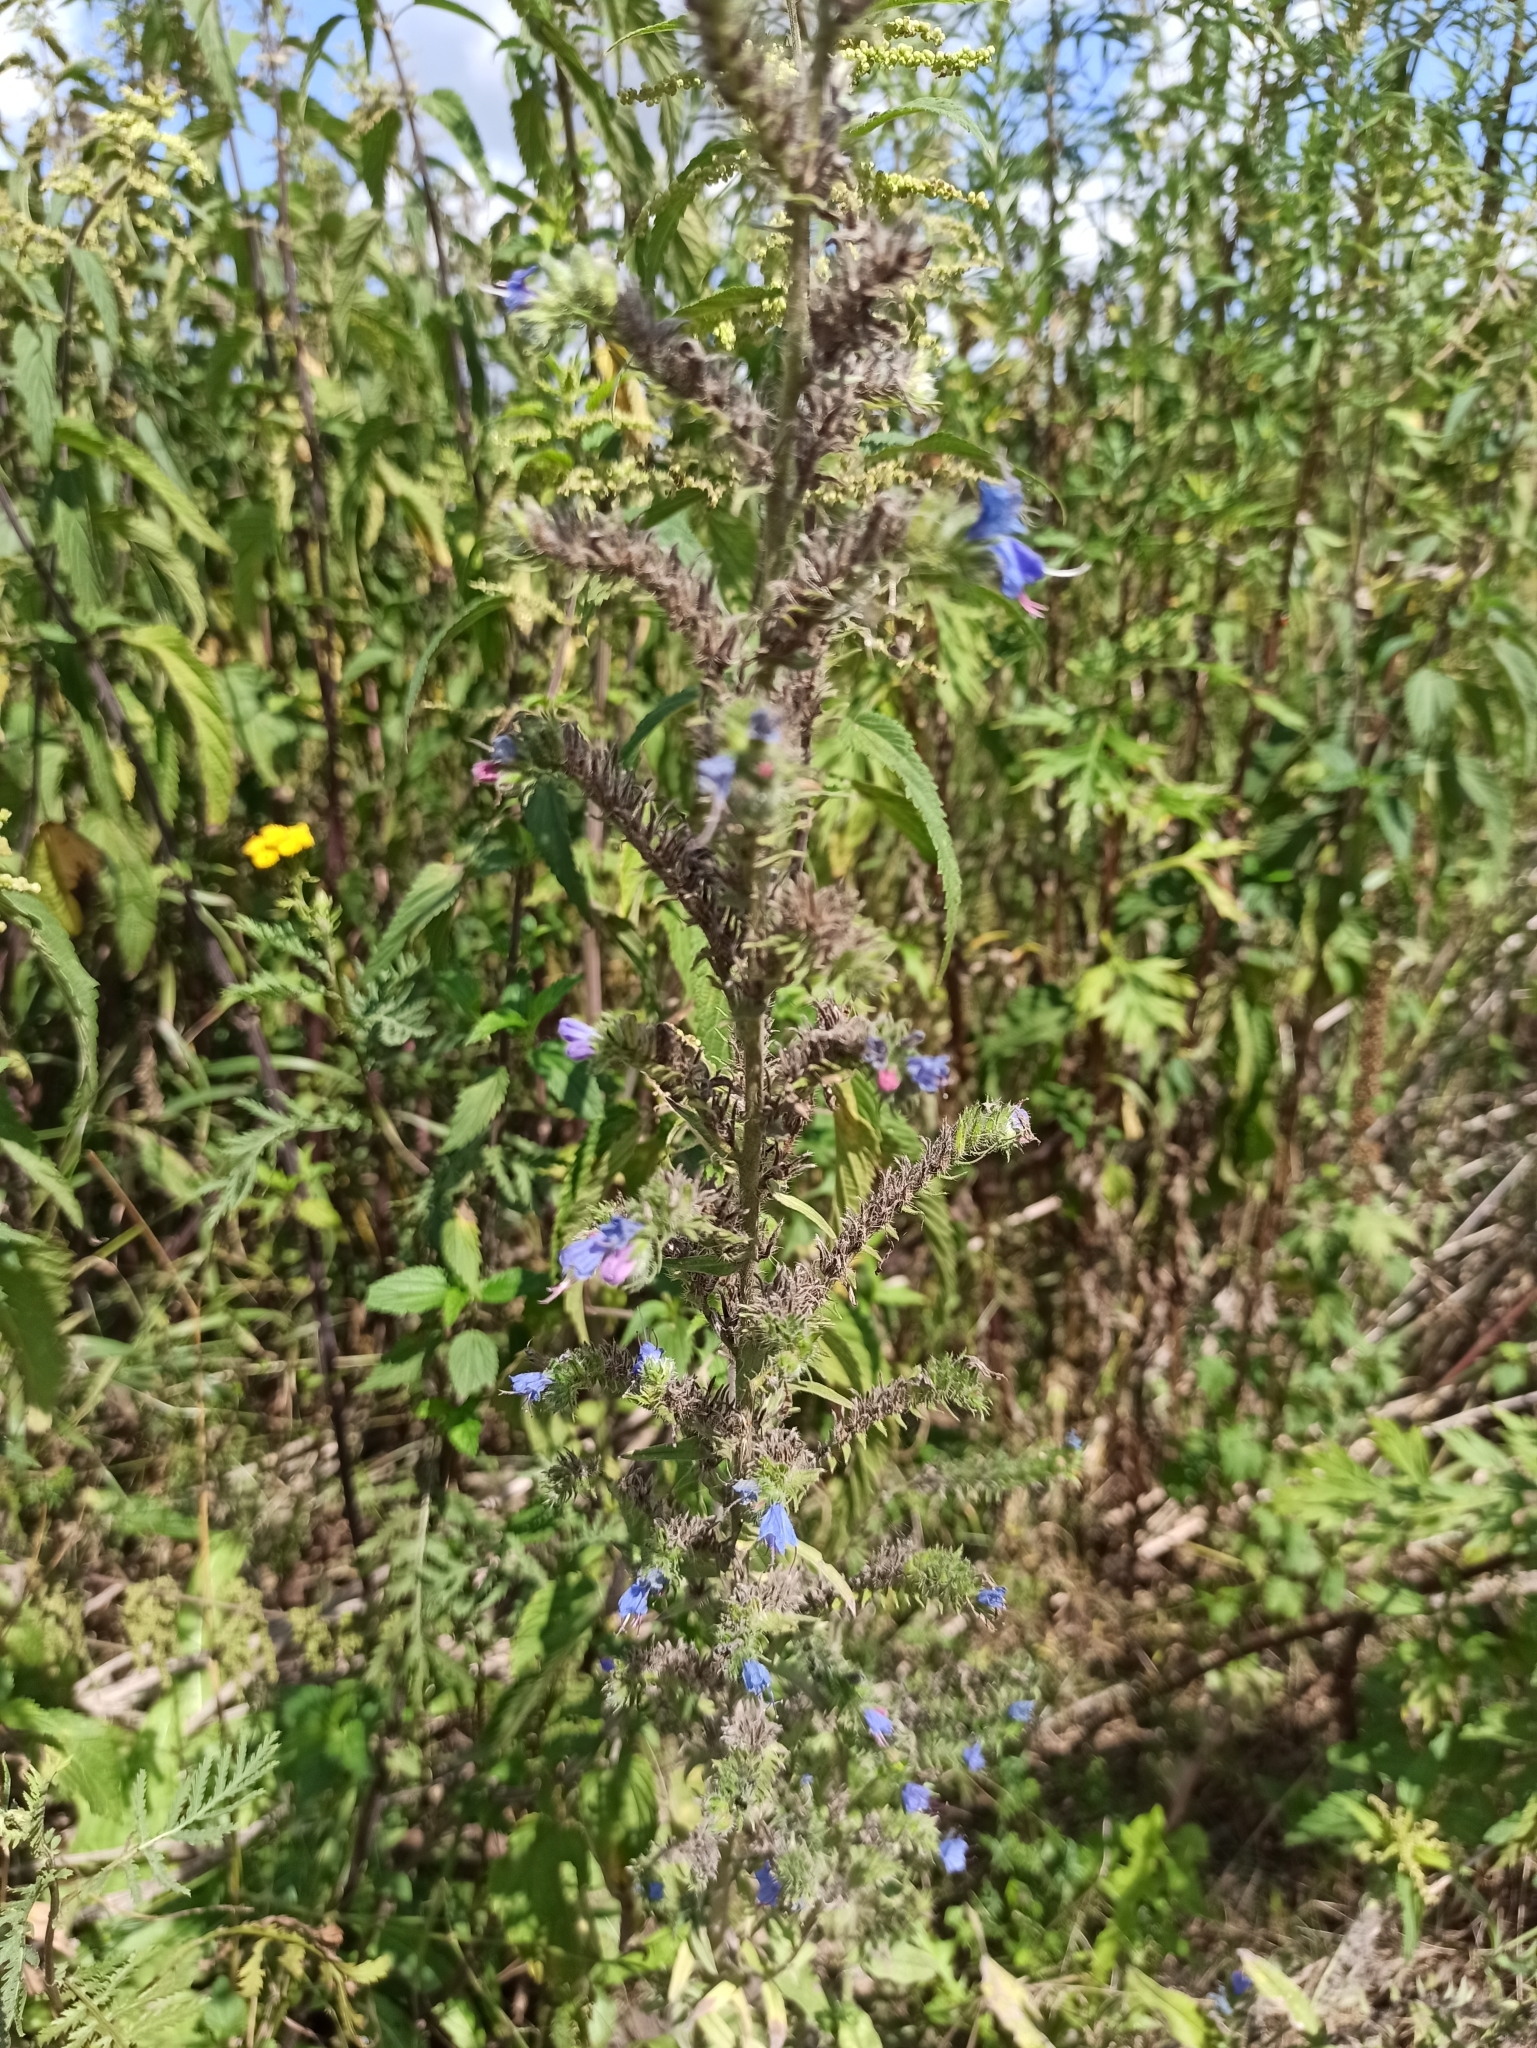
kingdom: Plantae
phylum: Tracheophyta
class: Magnoliopsida
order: Boraginales
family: Boraginaceae
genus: Echium
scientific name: Echium vulgare
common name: Common viper's bugloss
